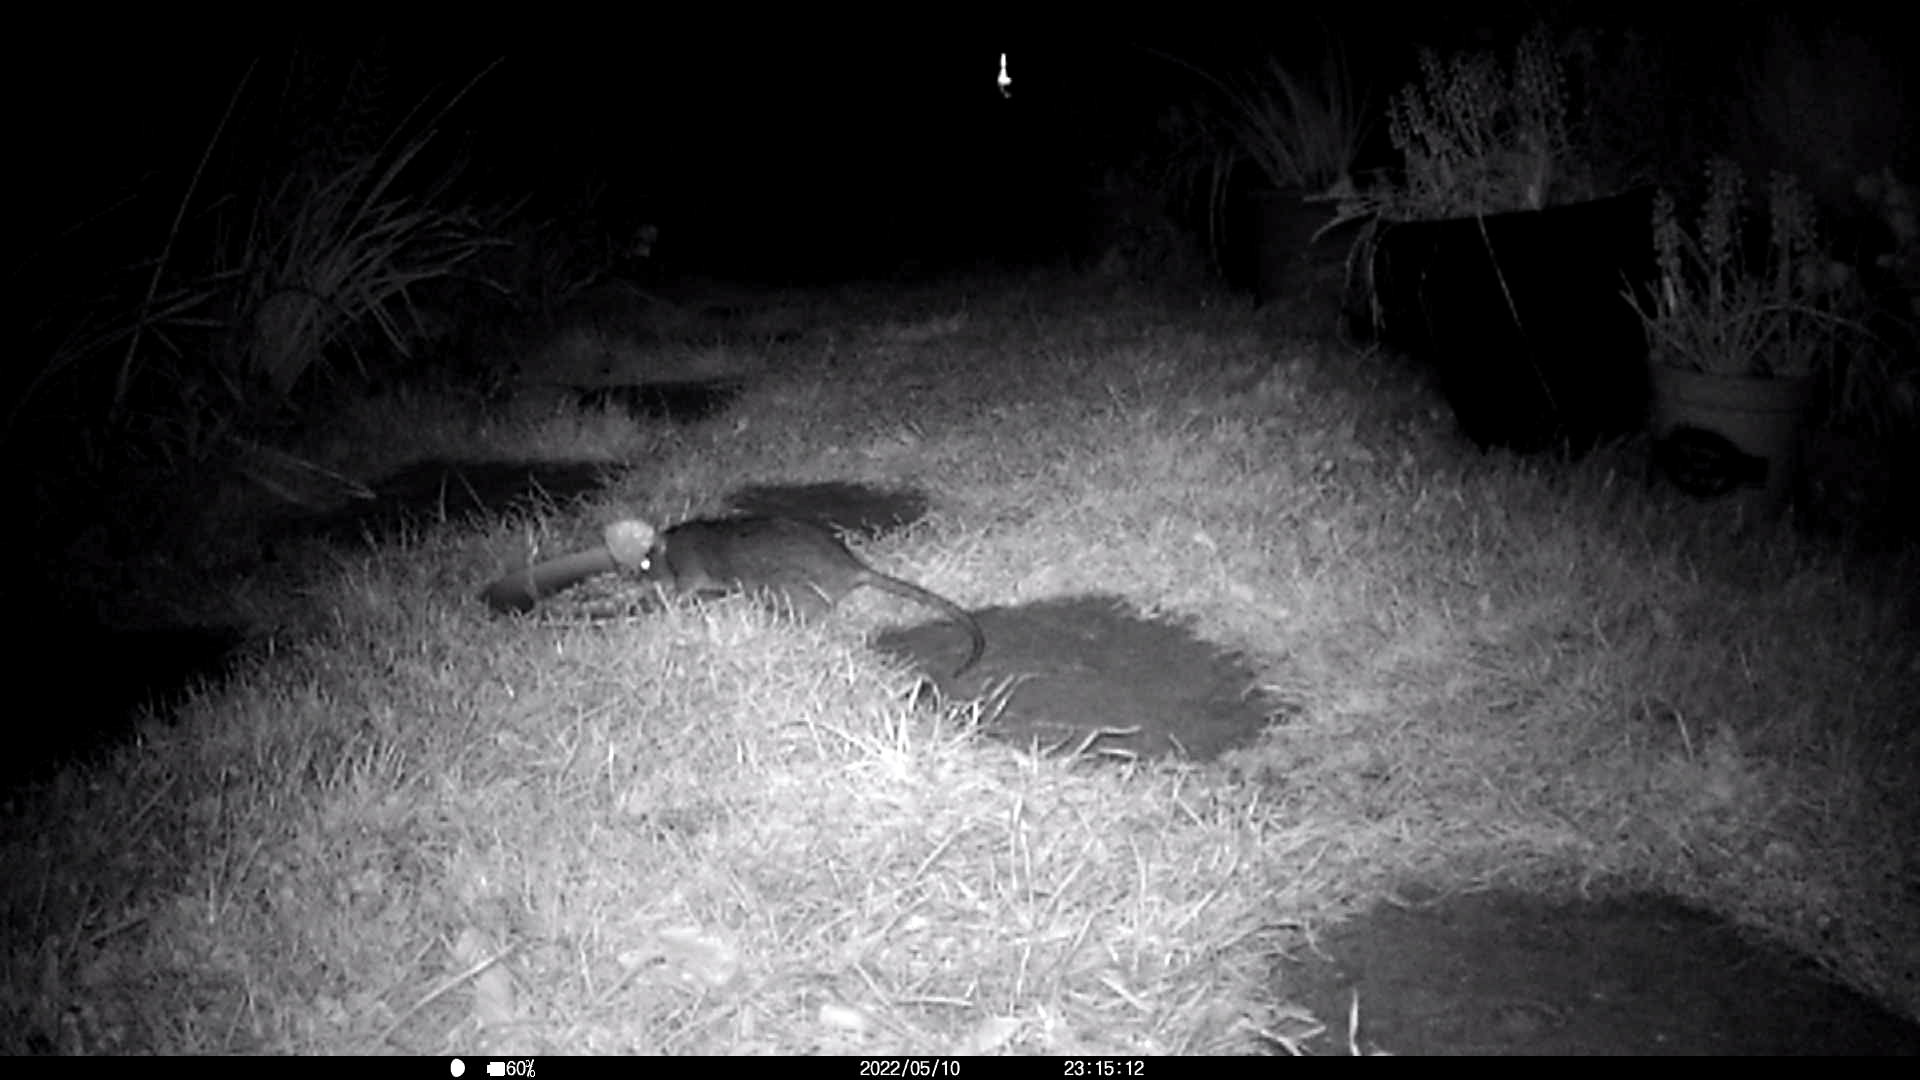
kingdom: Animalia
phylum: Chordata
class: Mammalia
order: Rodentia
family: Muridae
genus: Rattus
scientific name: Rattus norvegicus
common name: Brown rat
